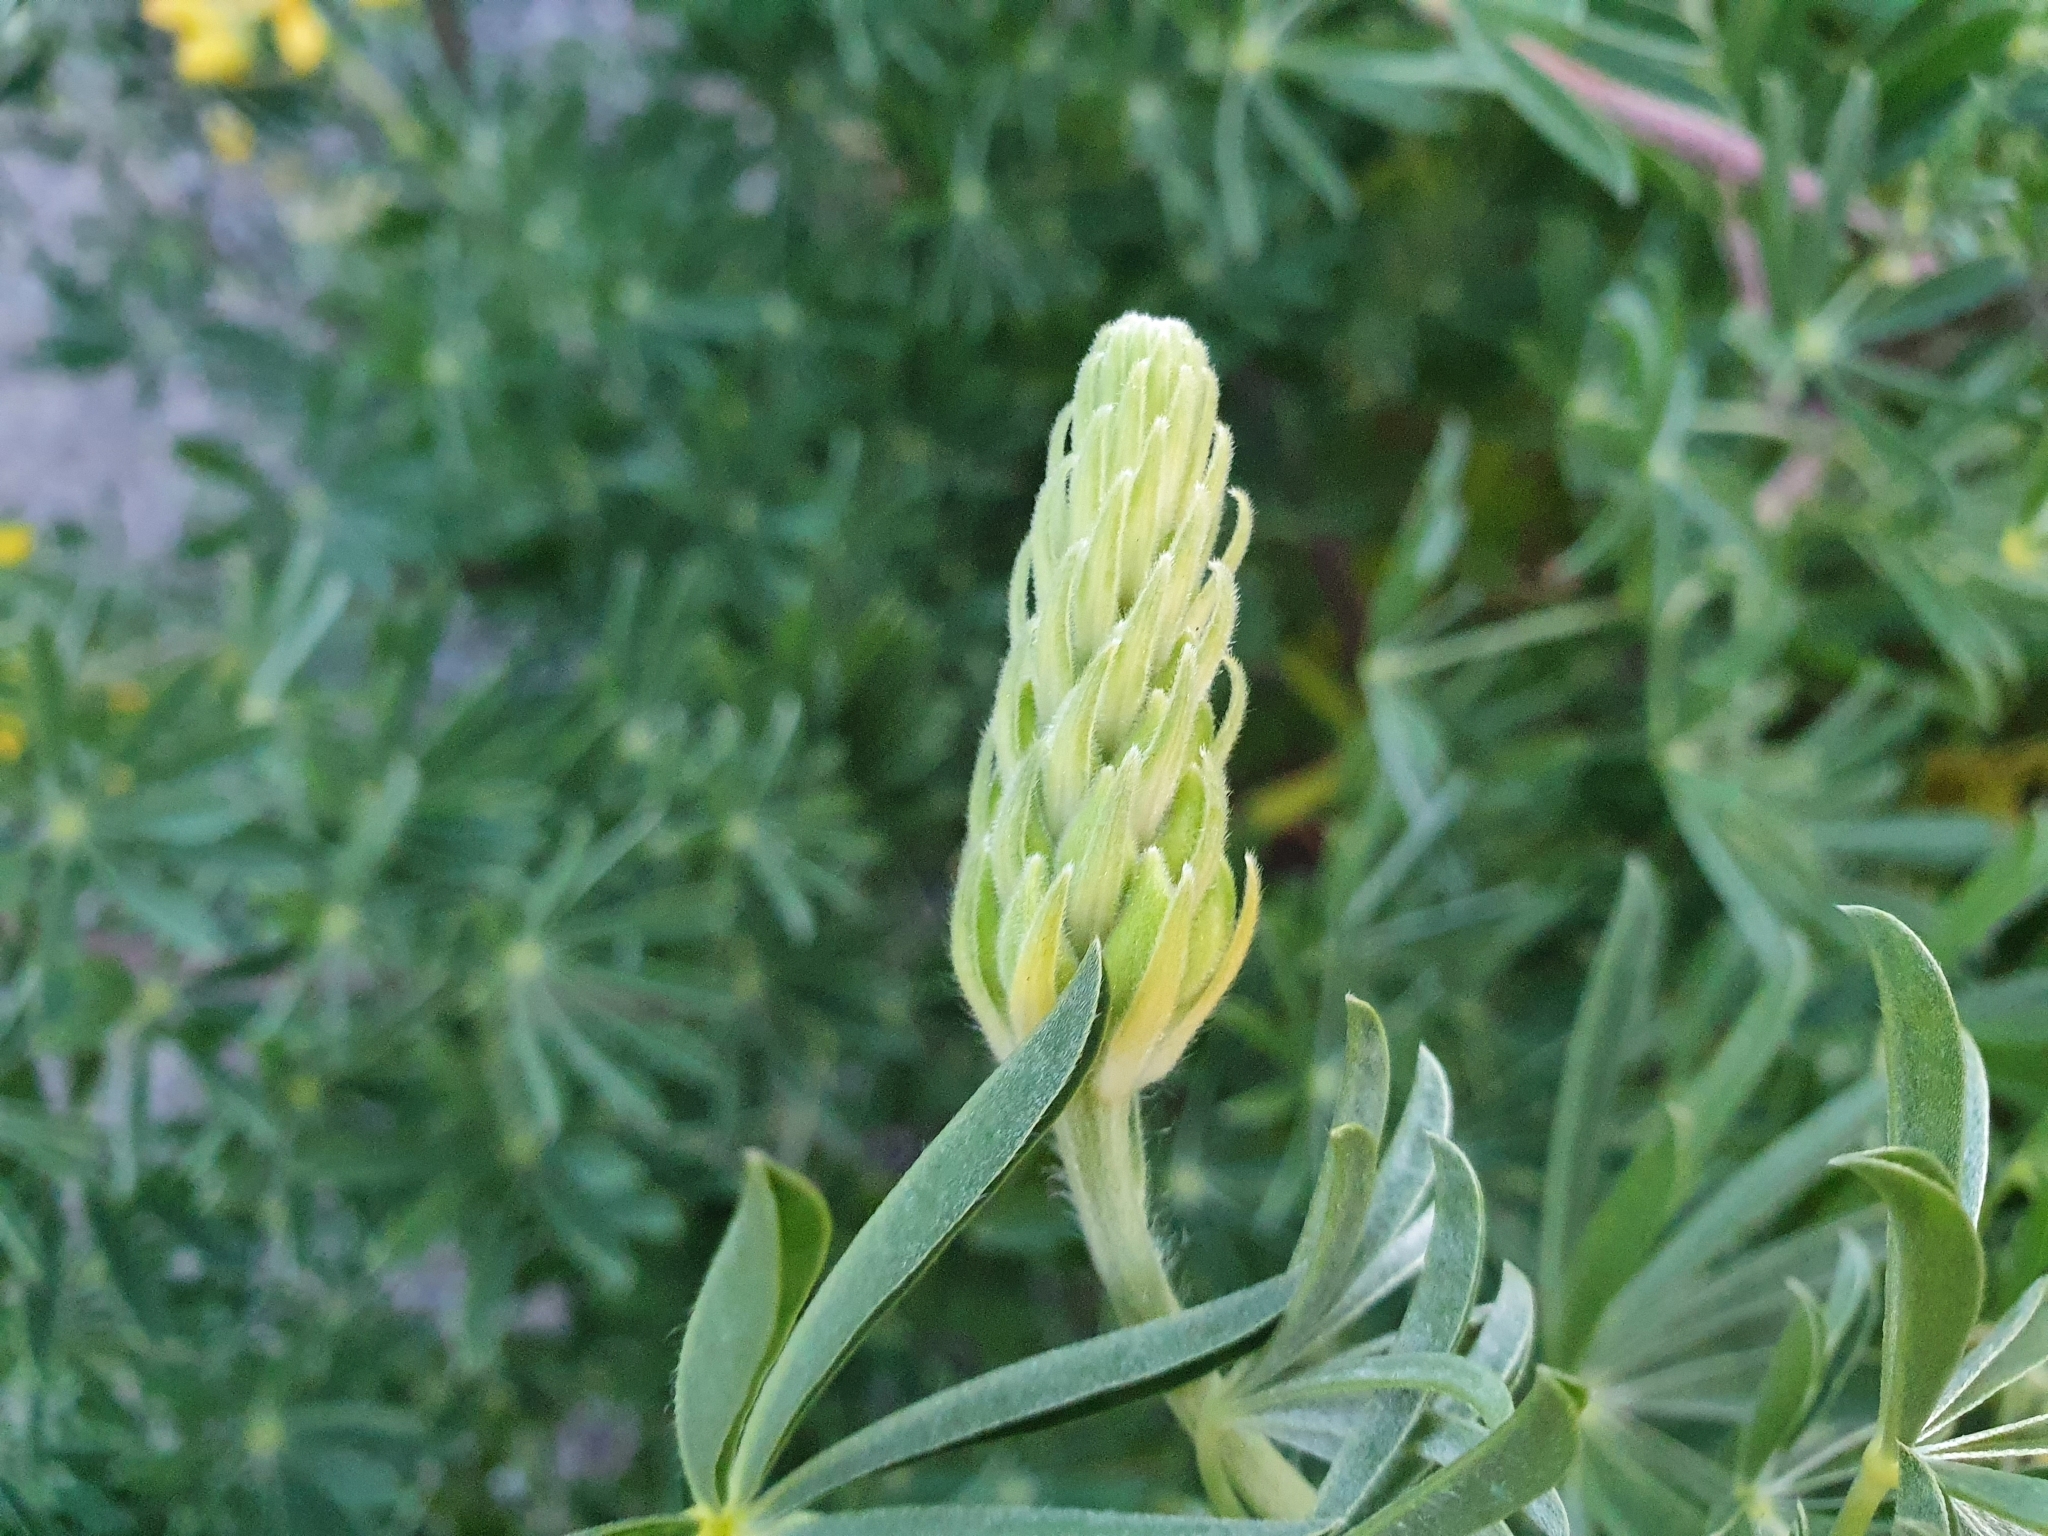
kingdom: Plantae
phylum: Tracheophyta
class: Magnoliopsida
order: Fabales
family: Fabaceae
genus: Lupinus
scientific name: Lupinus arboreus
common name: Yellow bush lupine
